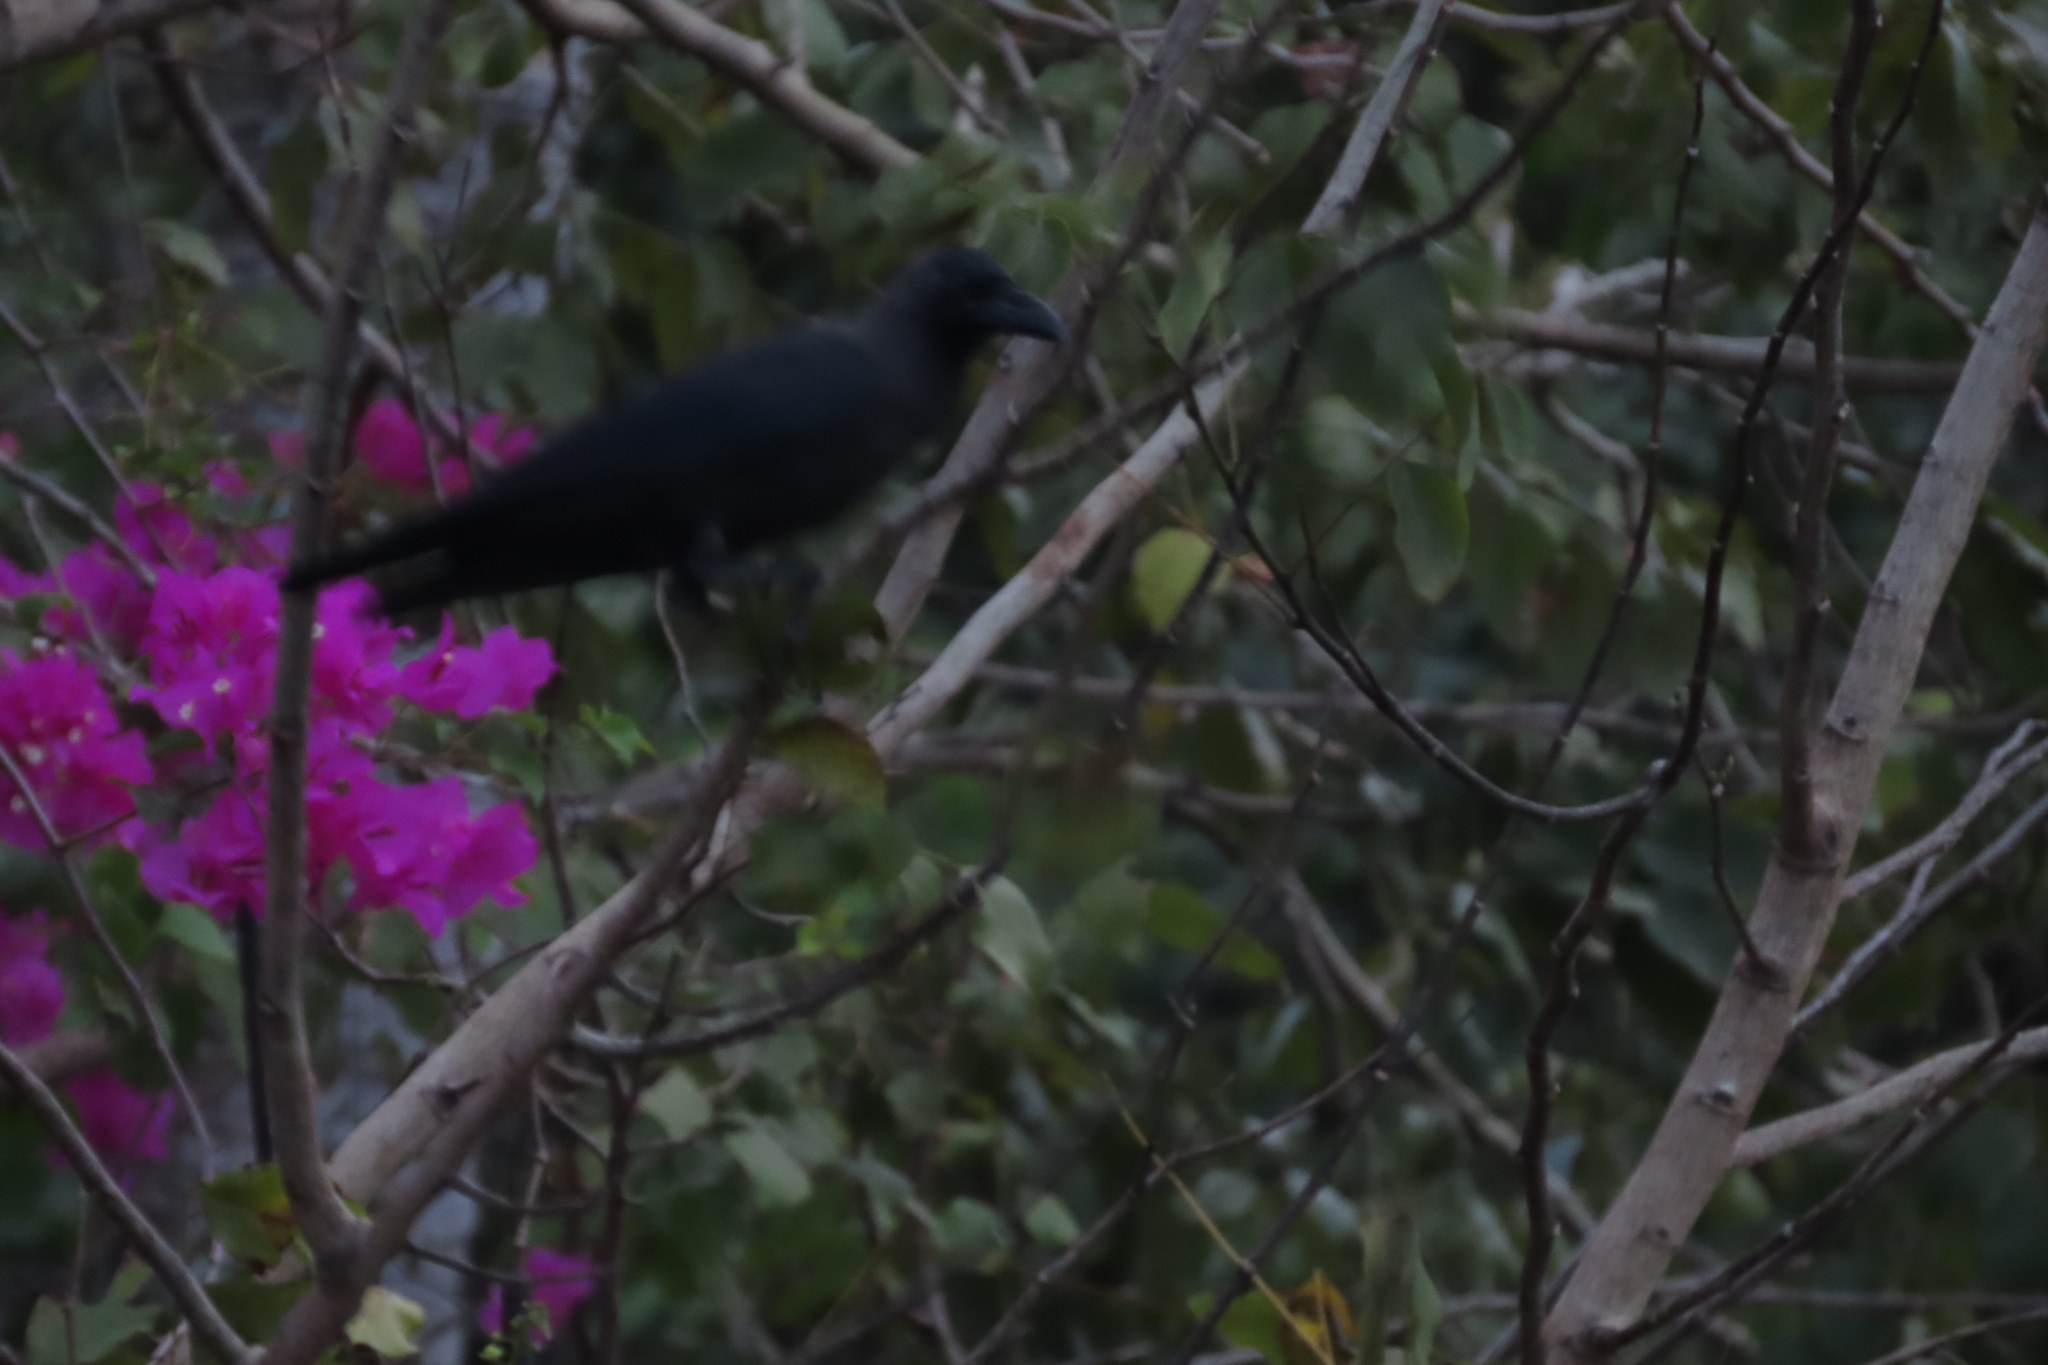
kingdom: Animalia
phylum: Chordata
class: Aves
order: Passeriformes
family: Corvidae
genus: Corvus
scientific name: Corvus splendens
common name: House crow
